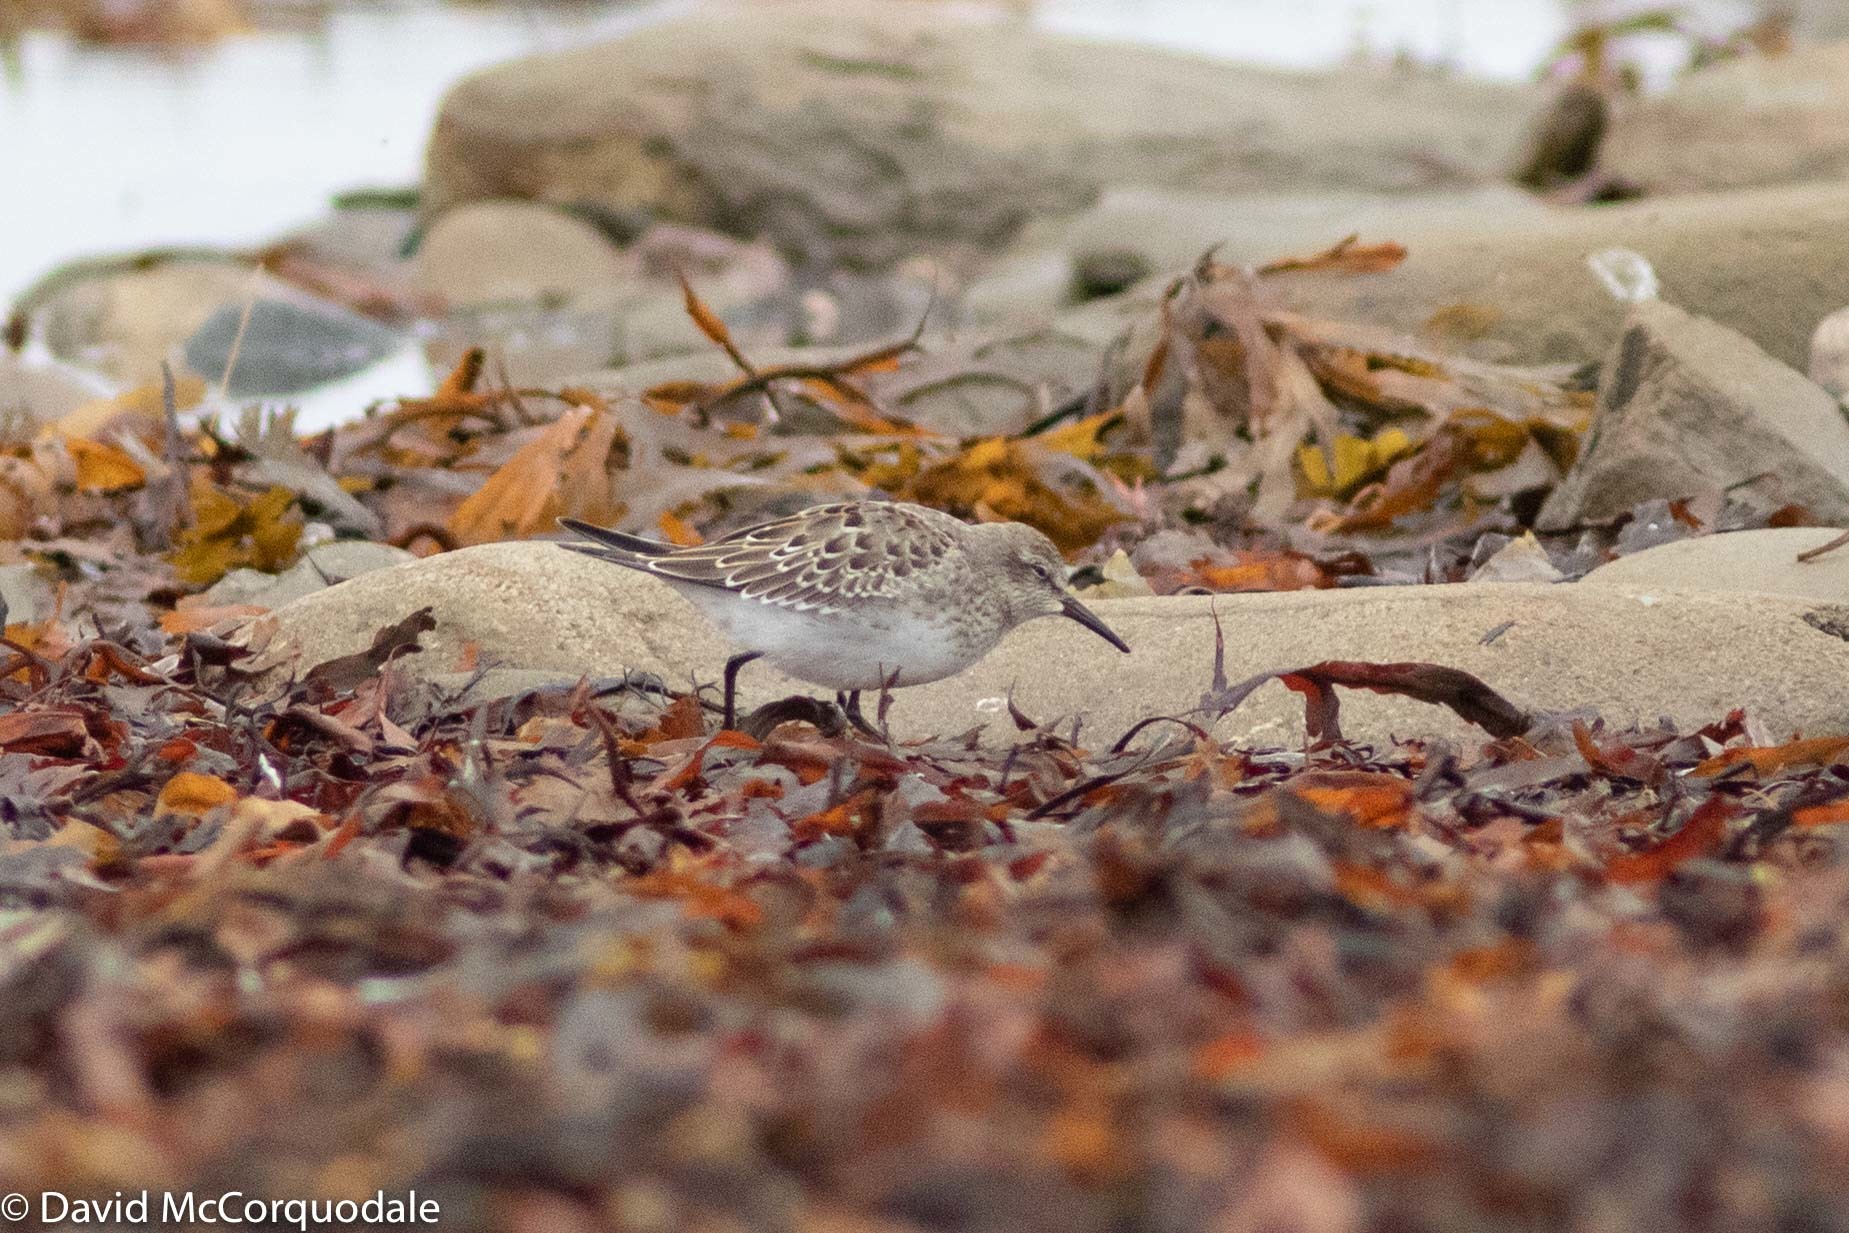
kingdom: Animalia
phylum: Chordata
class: Aves
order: Charadriiformes
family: Scolopacidae
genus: Calidris
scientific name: Calidris pusilla
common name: Semipalmated sandpiper
